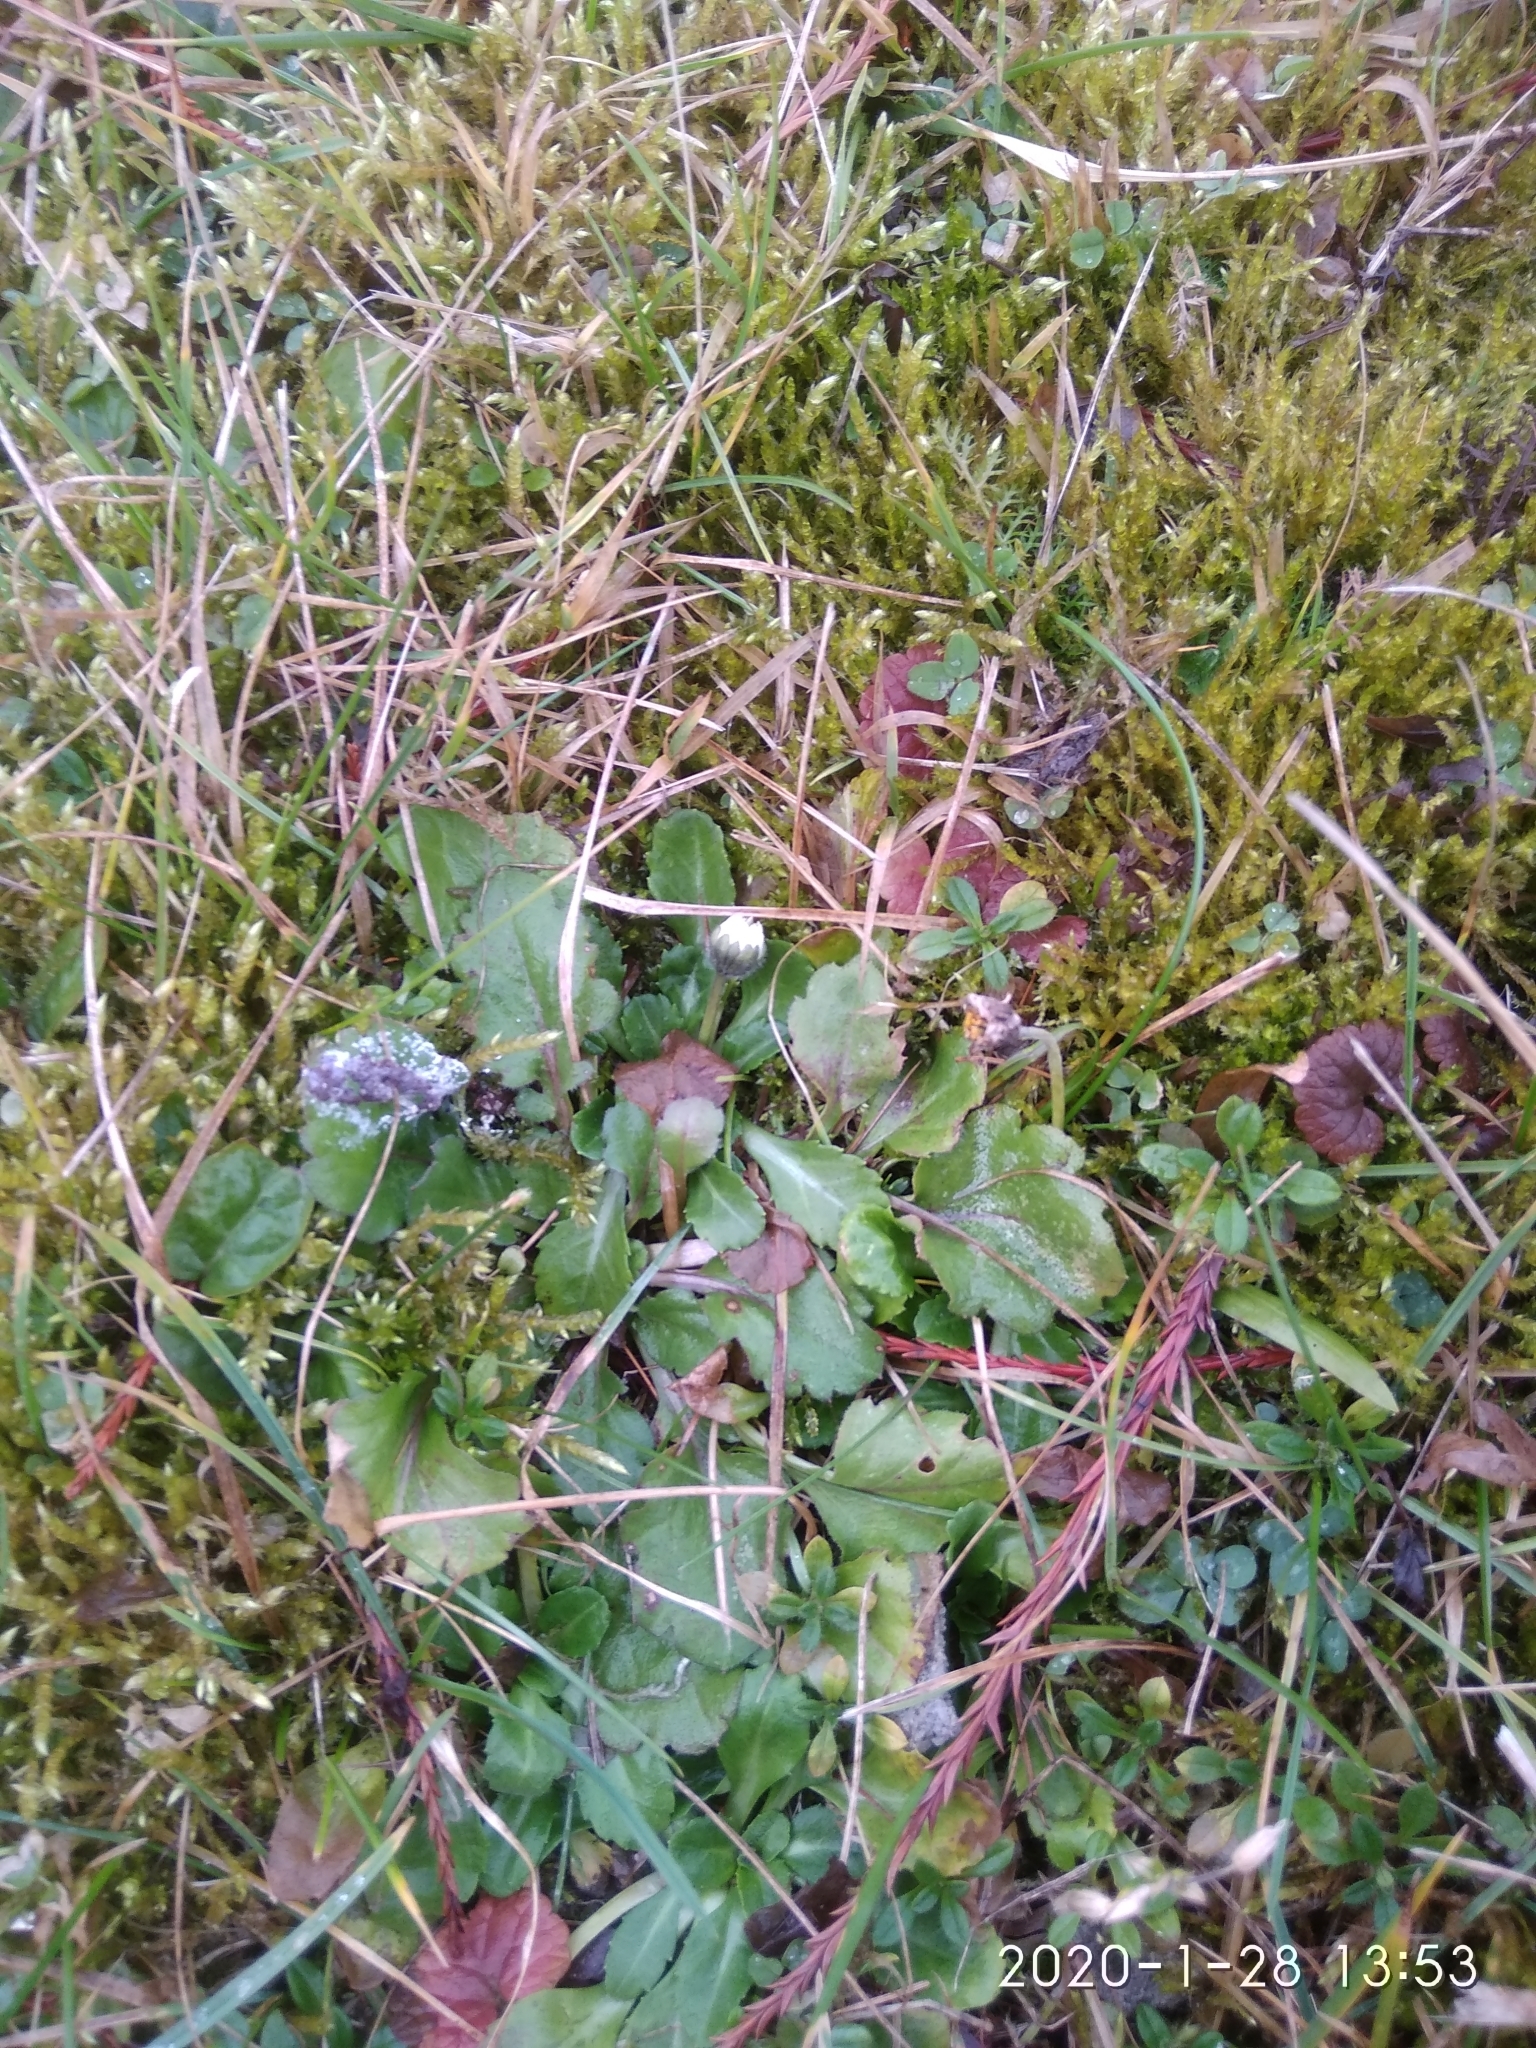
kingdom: Plantae
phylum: Tracheophyta
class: Magnoliopsida
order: Asterales
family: Asteraceae
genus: Bellis
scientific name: Bellis perennis
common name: Lawndaisy
